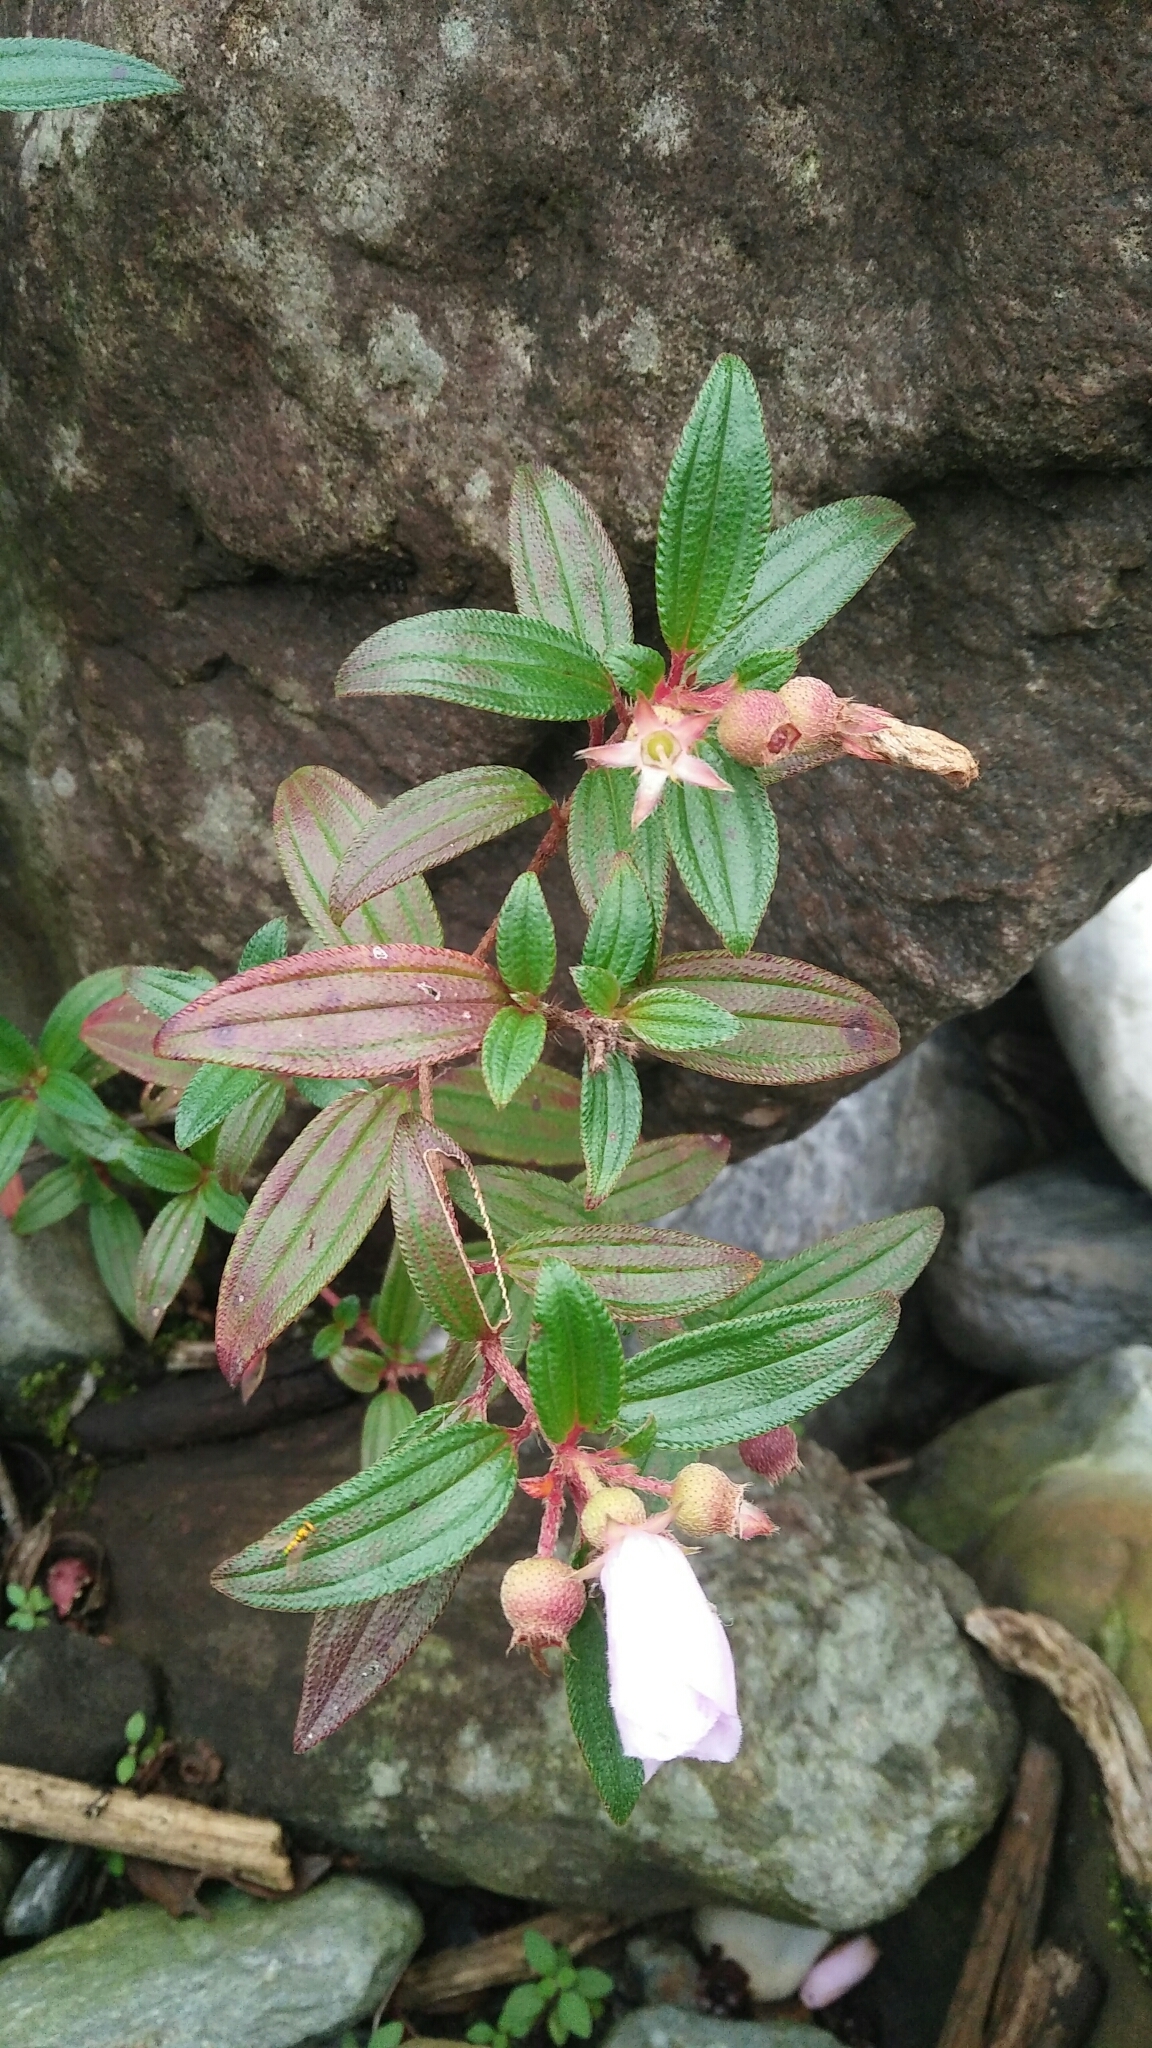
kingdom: Plantae
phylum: Tracheophyta
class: Magnoliopsida
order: Myrtales
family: Melastomataceae
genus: Melastoma
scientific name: Melastoma scaberrima
